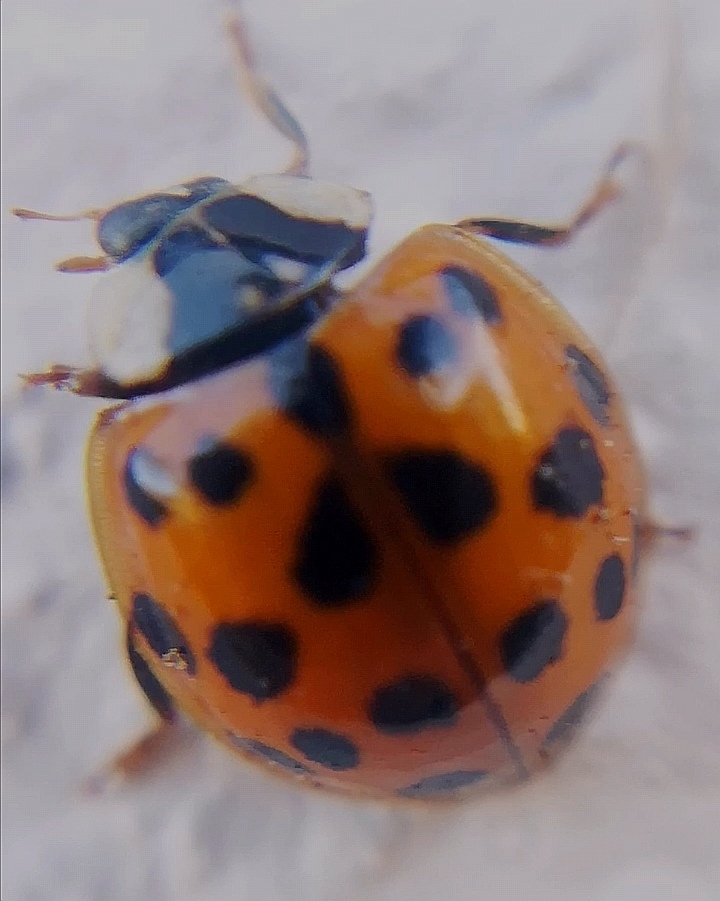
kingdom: Animalia
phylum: Arthropoda
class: Insecta
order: Coleoptera
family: Coccinellidae
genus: Harmonia
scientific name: Harmonia axyridis
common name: Harlequin ladybird
